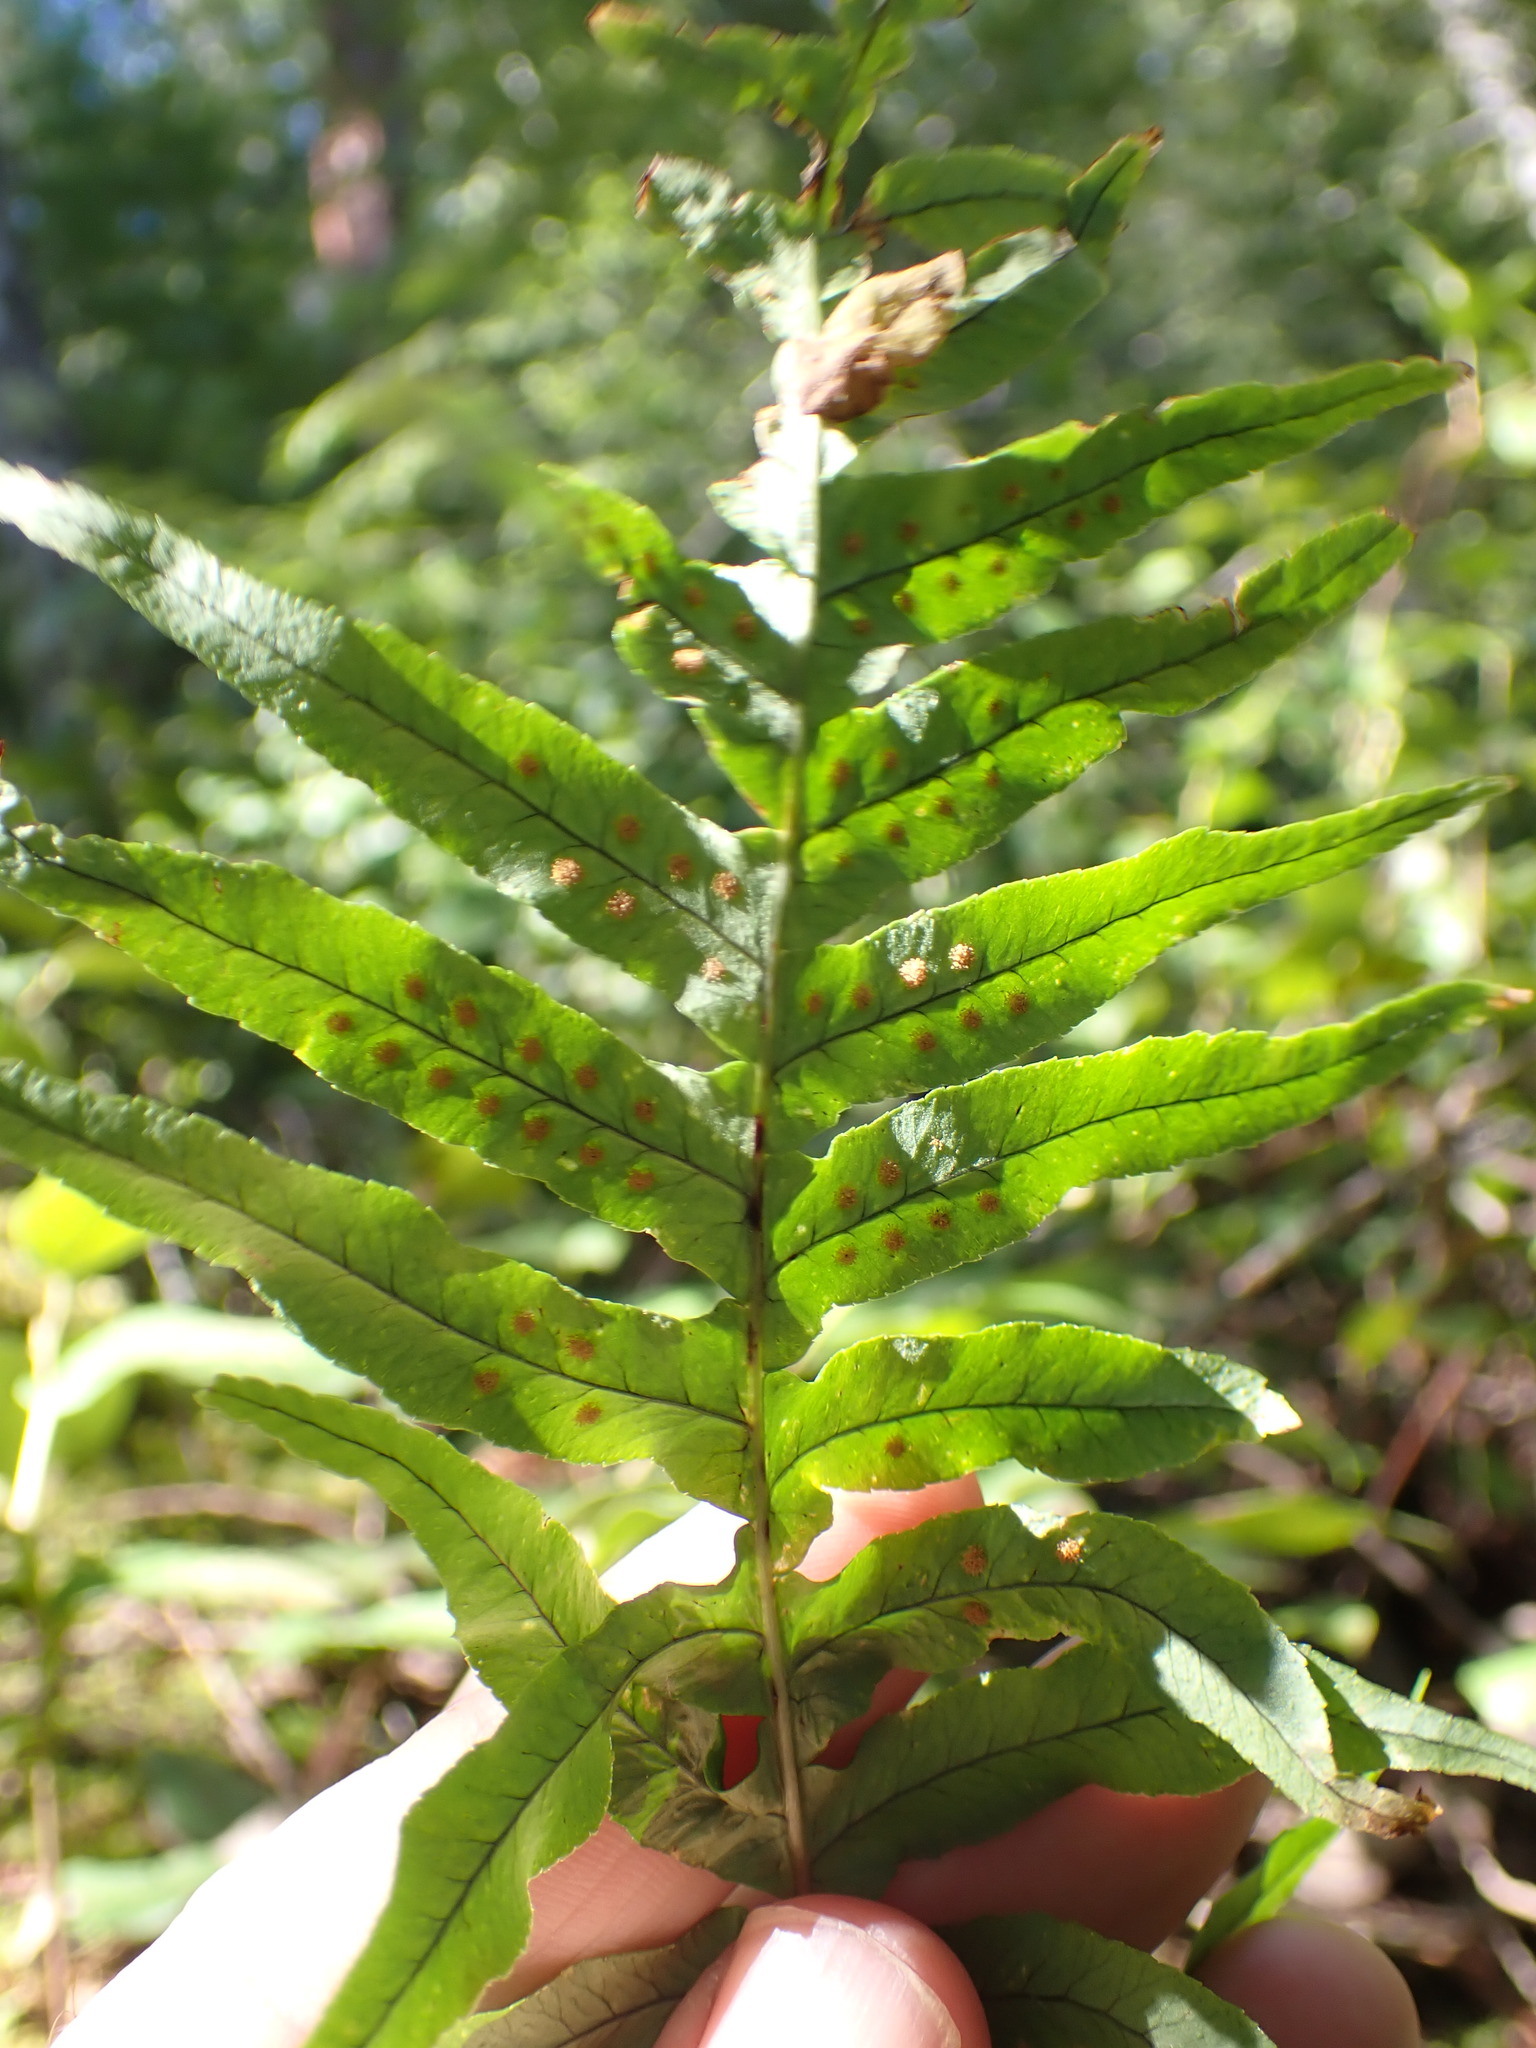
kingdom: Plantae
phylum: Tracheophyta
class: Polypodiopsida
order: Polypodiales
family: Polypodiaceae
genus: Polypodium
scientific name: Polypodium glycyrrhiza
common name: Licorice fern
